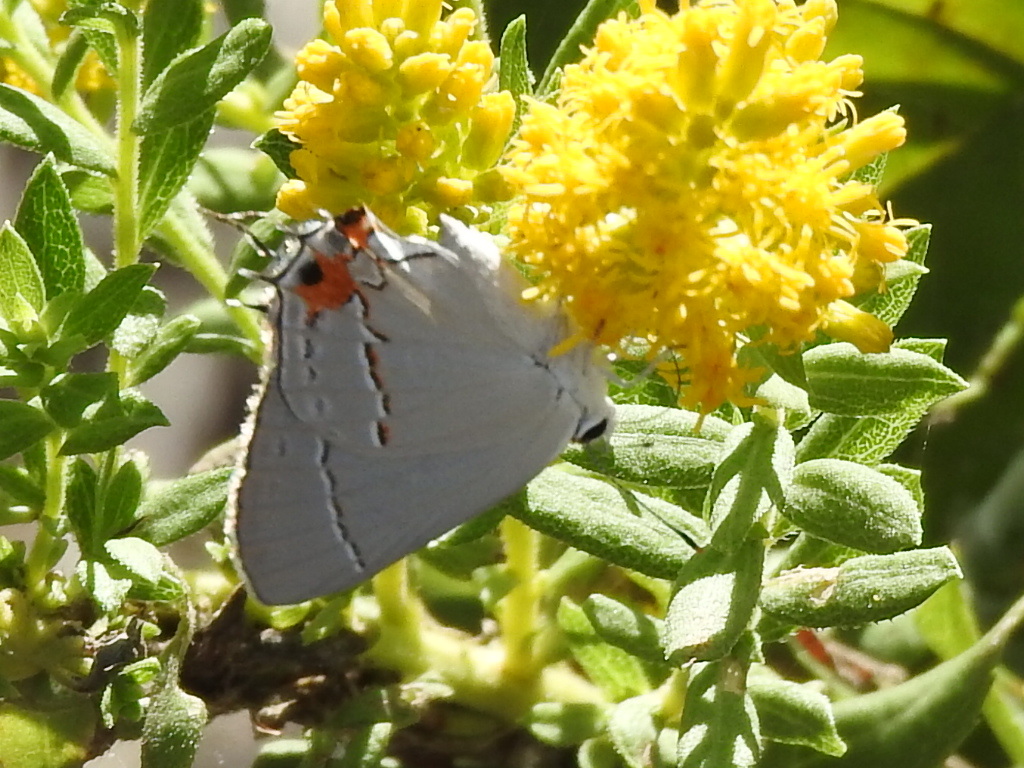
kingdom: Animalia
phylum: Arthropoda
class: Insecta
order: Lepidoptera
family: Lycaenidae
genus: Strymon
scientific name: Strymon melinus
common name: Gray hairstreak
